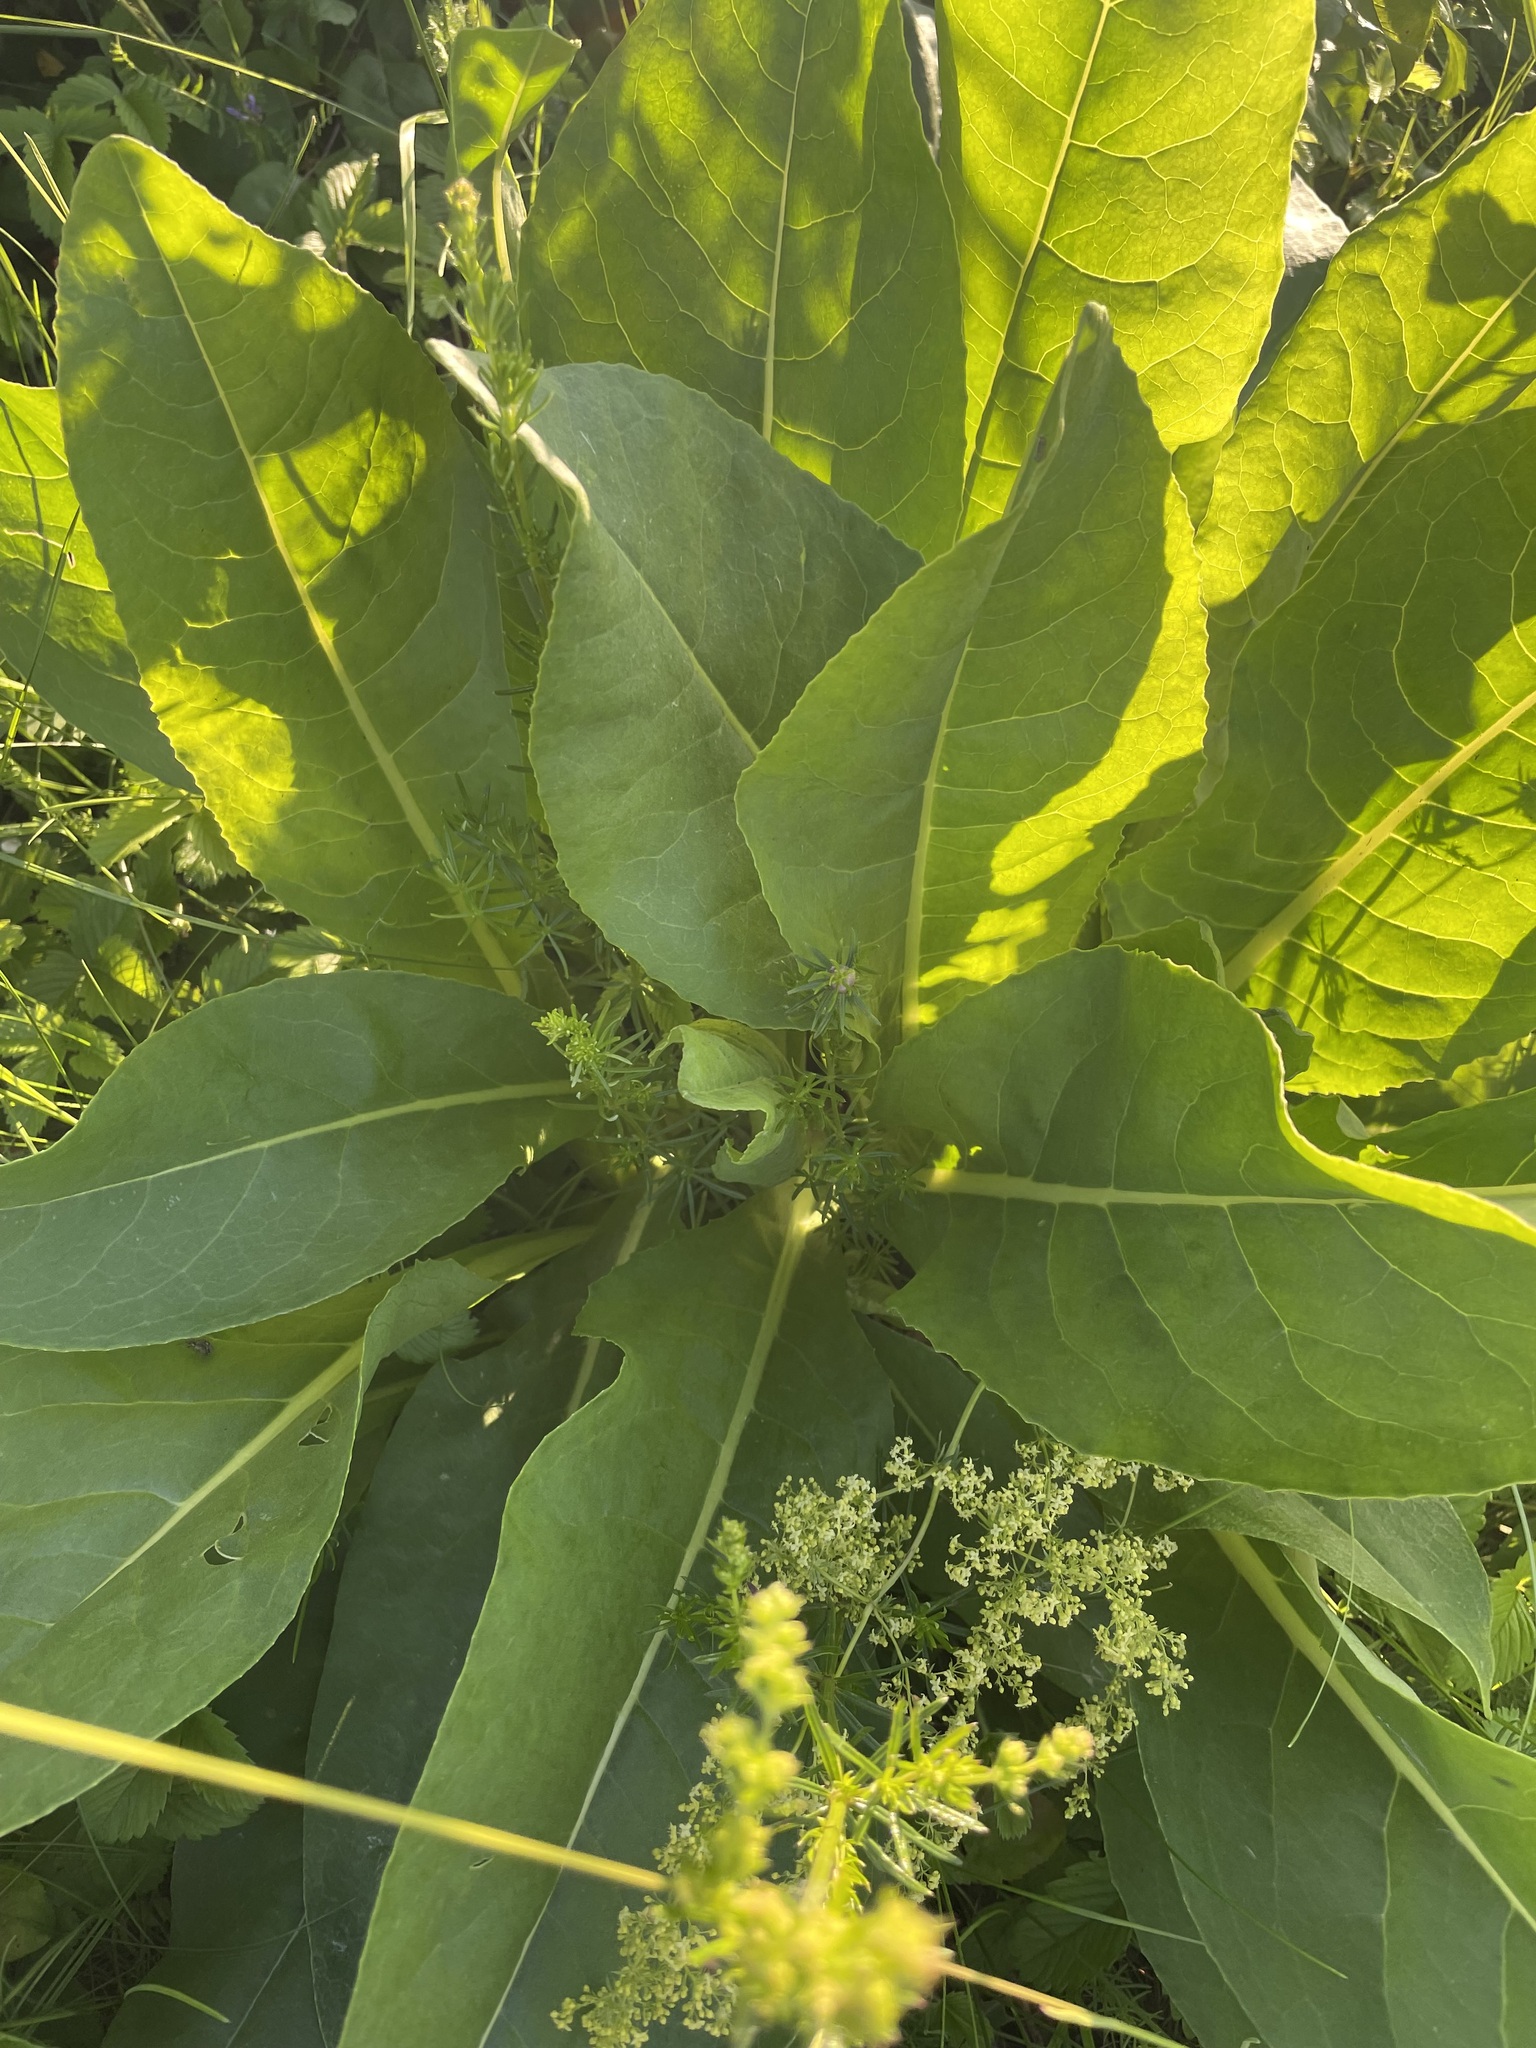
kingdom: Plantae
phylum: Tracheophyta
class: Magnoliopsida
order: Asterales
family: Asteraceae
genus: Senecio
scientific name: Senecio doria
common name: Golden ragwort
